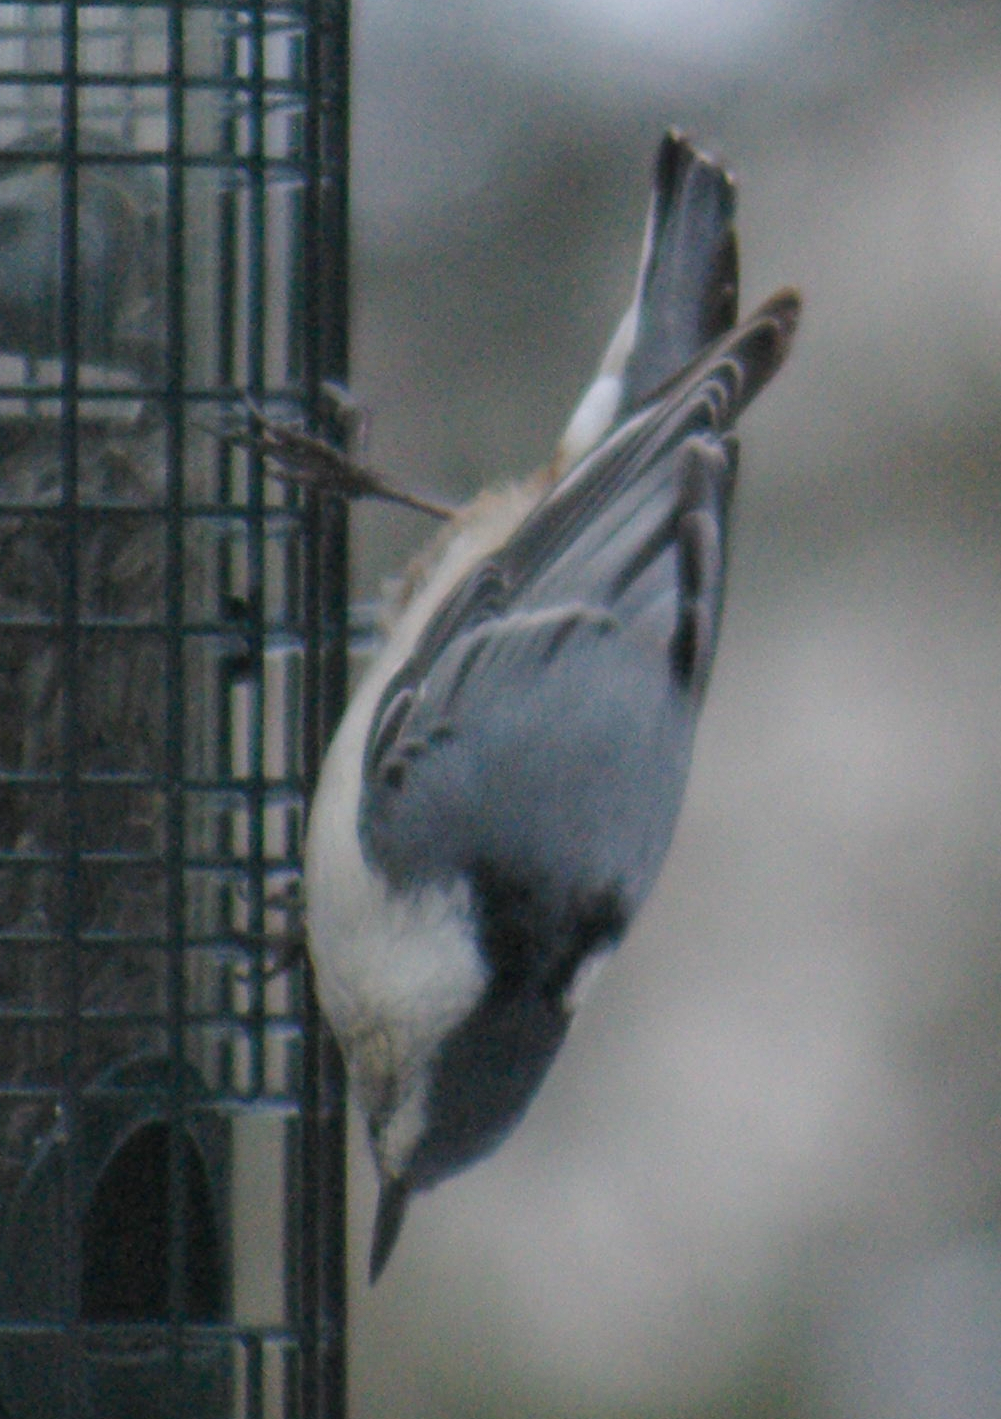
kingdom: Animalia
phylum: Chordata
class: Aves
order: Passeriformes
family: Sittidae
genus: Sitta
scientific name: Sitta carolinensis
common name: White-breasted nuthatch
